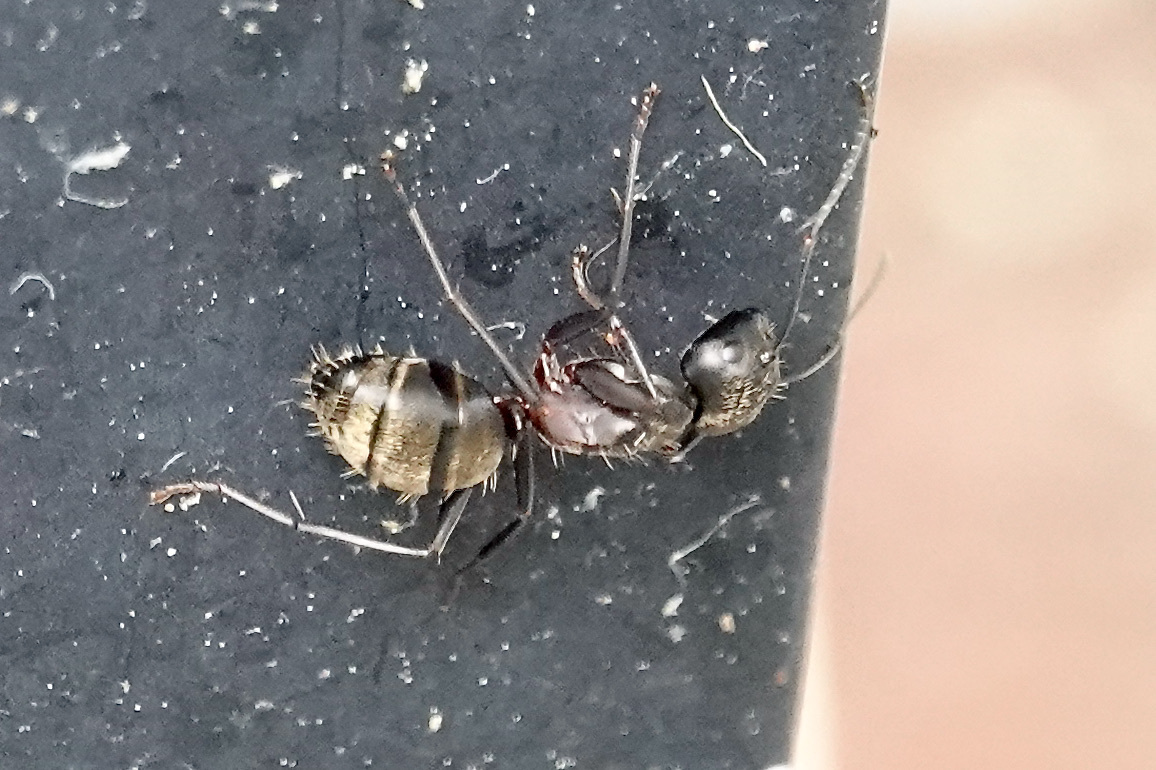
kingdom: Animalia
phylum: Arthropoda
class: Insecta
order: Hymenoptera
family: Formicidae
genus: Camponotus
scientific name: Camponotus pennsylvanicus
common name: Black carpenter ant
